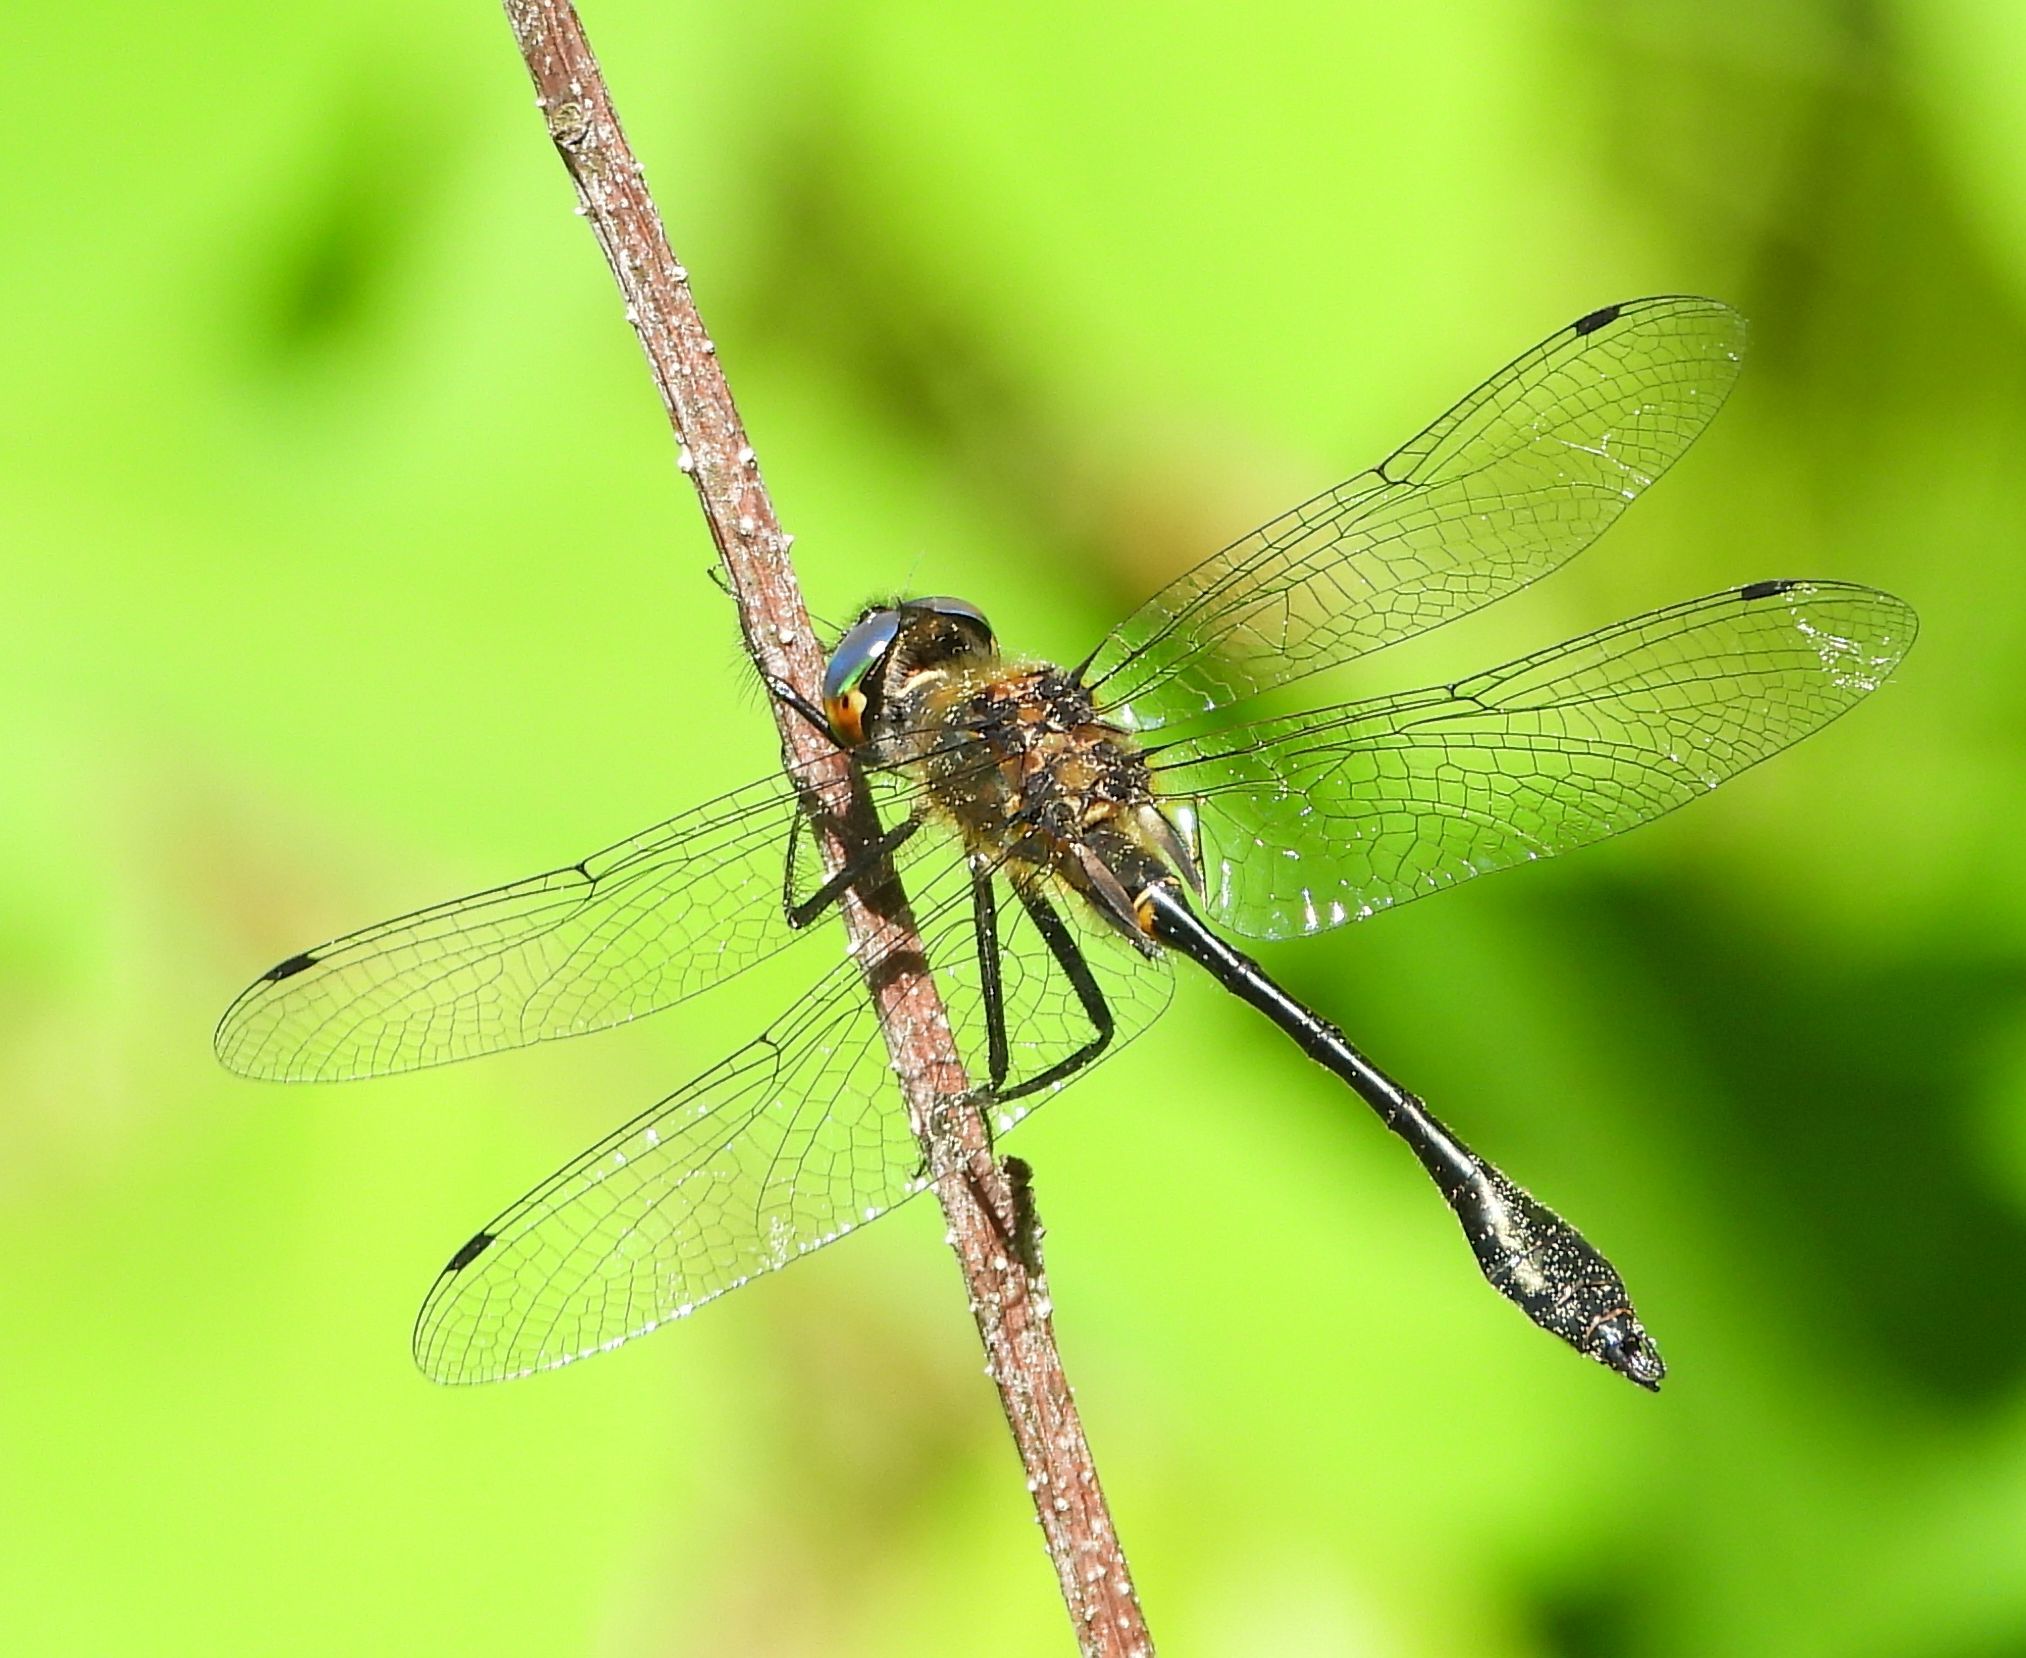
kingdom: Animalia
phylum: Arthropoda
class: Insecta
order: Odonata
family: Corduliidae
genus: Dorocordulia
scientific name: Dorocordulia libera
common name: Racket-tailed emerald
